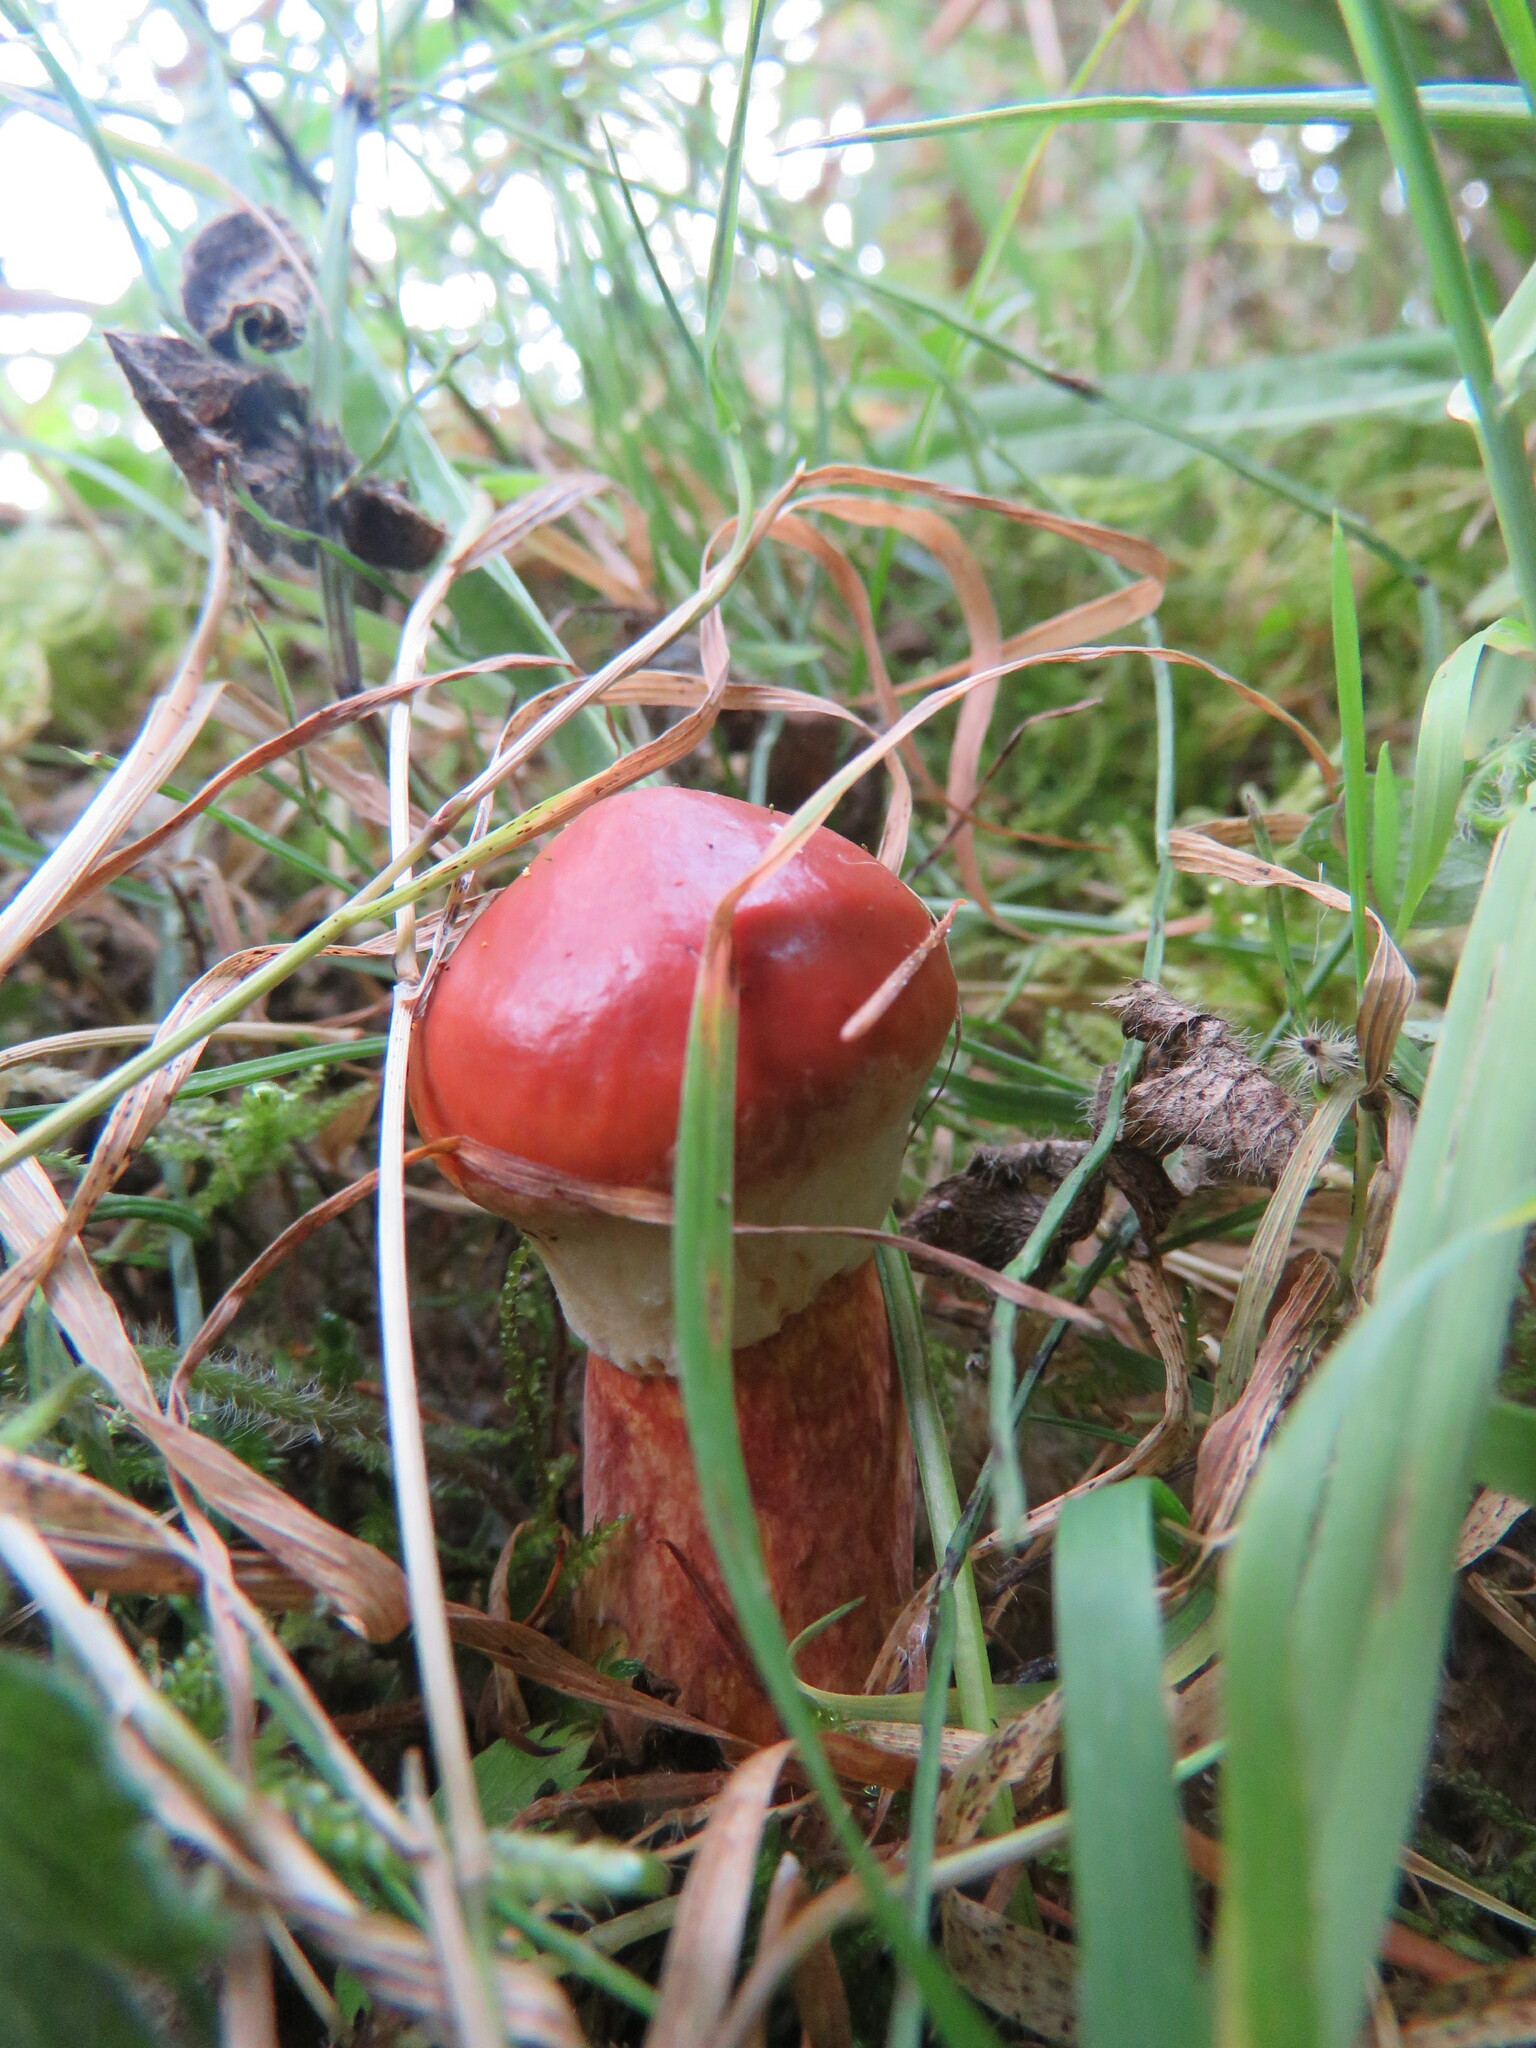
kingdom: Fungi
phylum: Basidiomycota
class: Agaricomycetes
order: Boletales
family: Suillaceae
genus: Suillus
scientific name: Suillus grevillei
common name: Larch bolete
